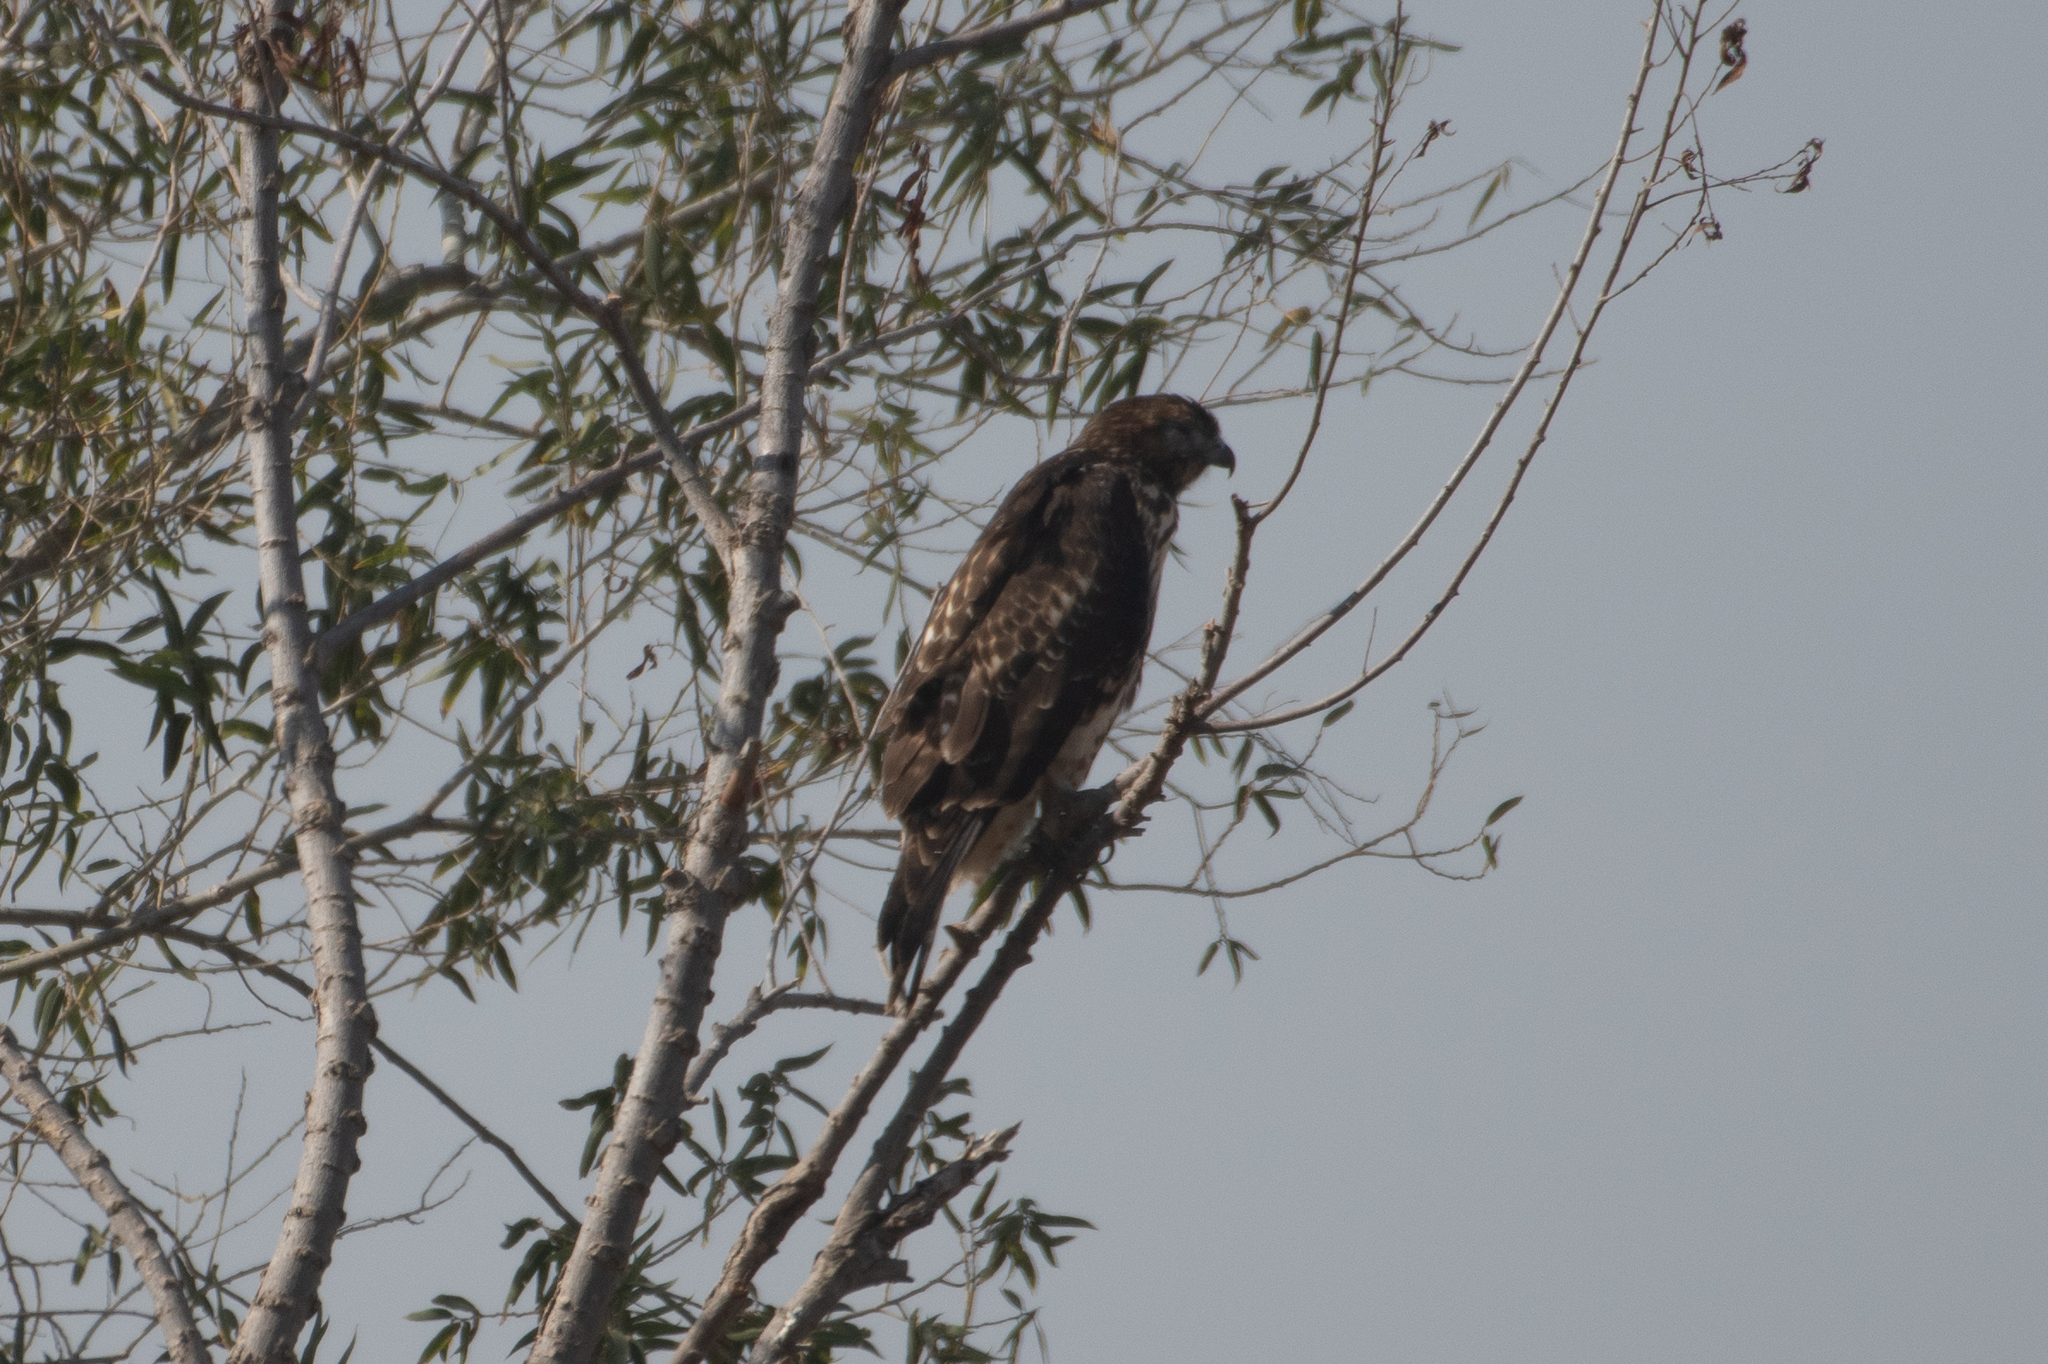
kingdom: Animalia
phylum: Chordata
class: Aves
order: Accipitriformes
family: Accipitridae
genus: Buteo
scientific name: Buteo jamaicensis
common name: Red-tailed hawk
